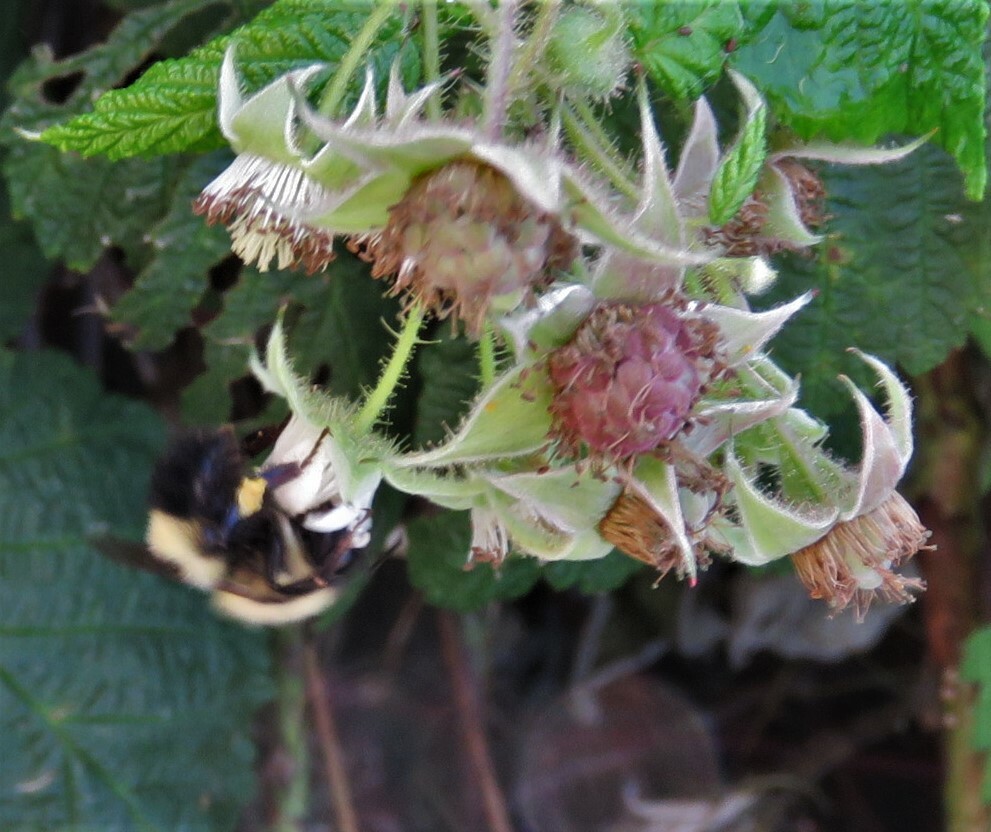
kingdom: Animalia
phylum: Arthropoda
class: Insecta
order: Hymenoptera
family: Apidae
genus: Bombus
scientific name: Bombus impatiens
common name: Common eastern bumble bee
